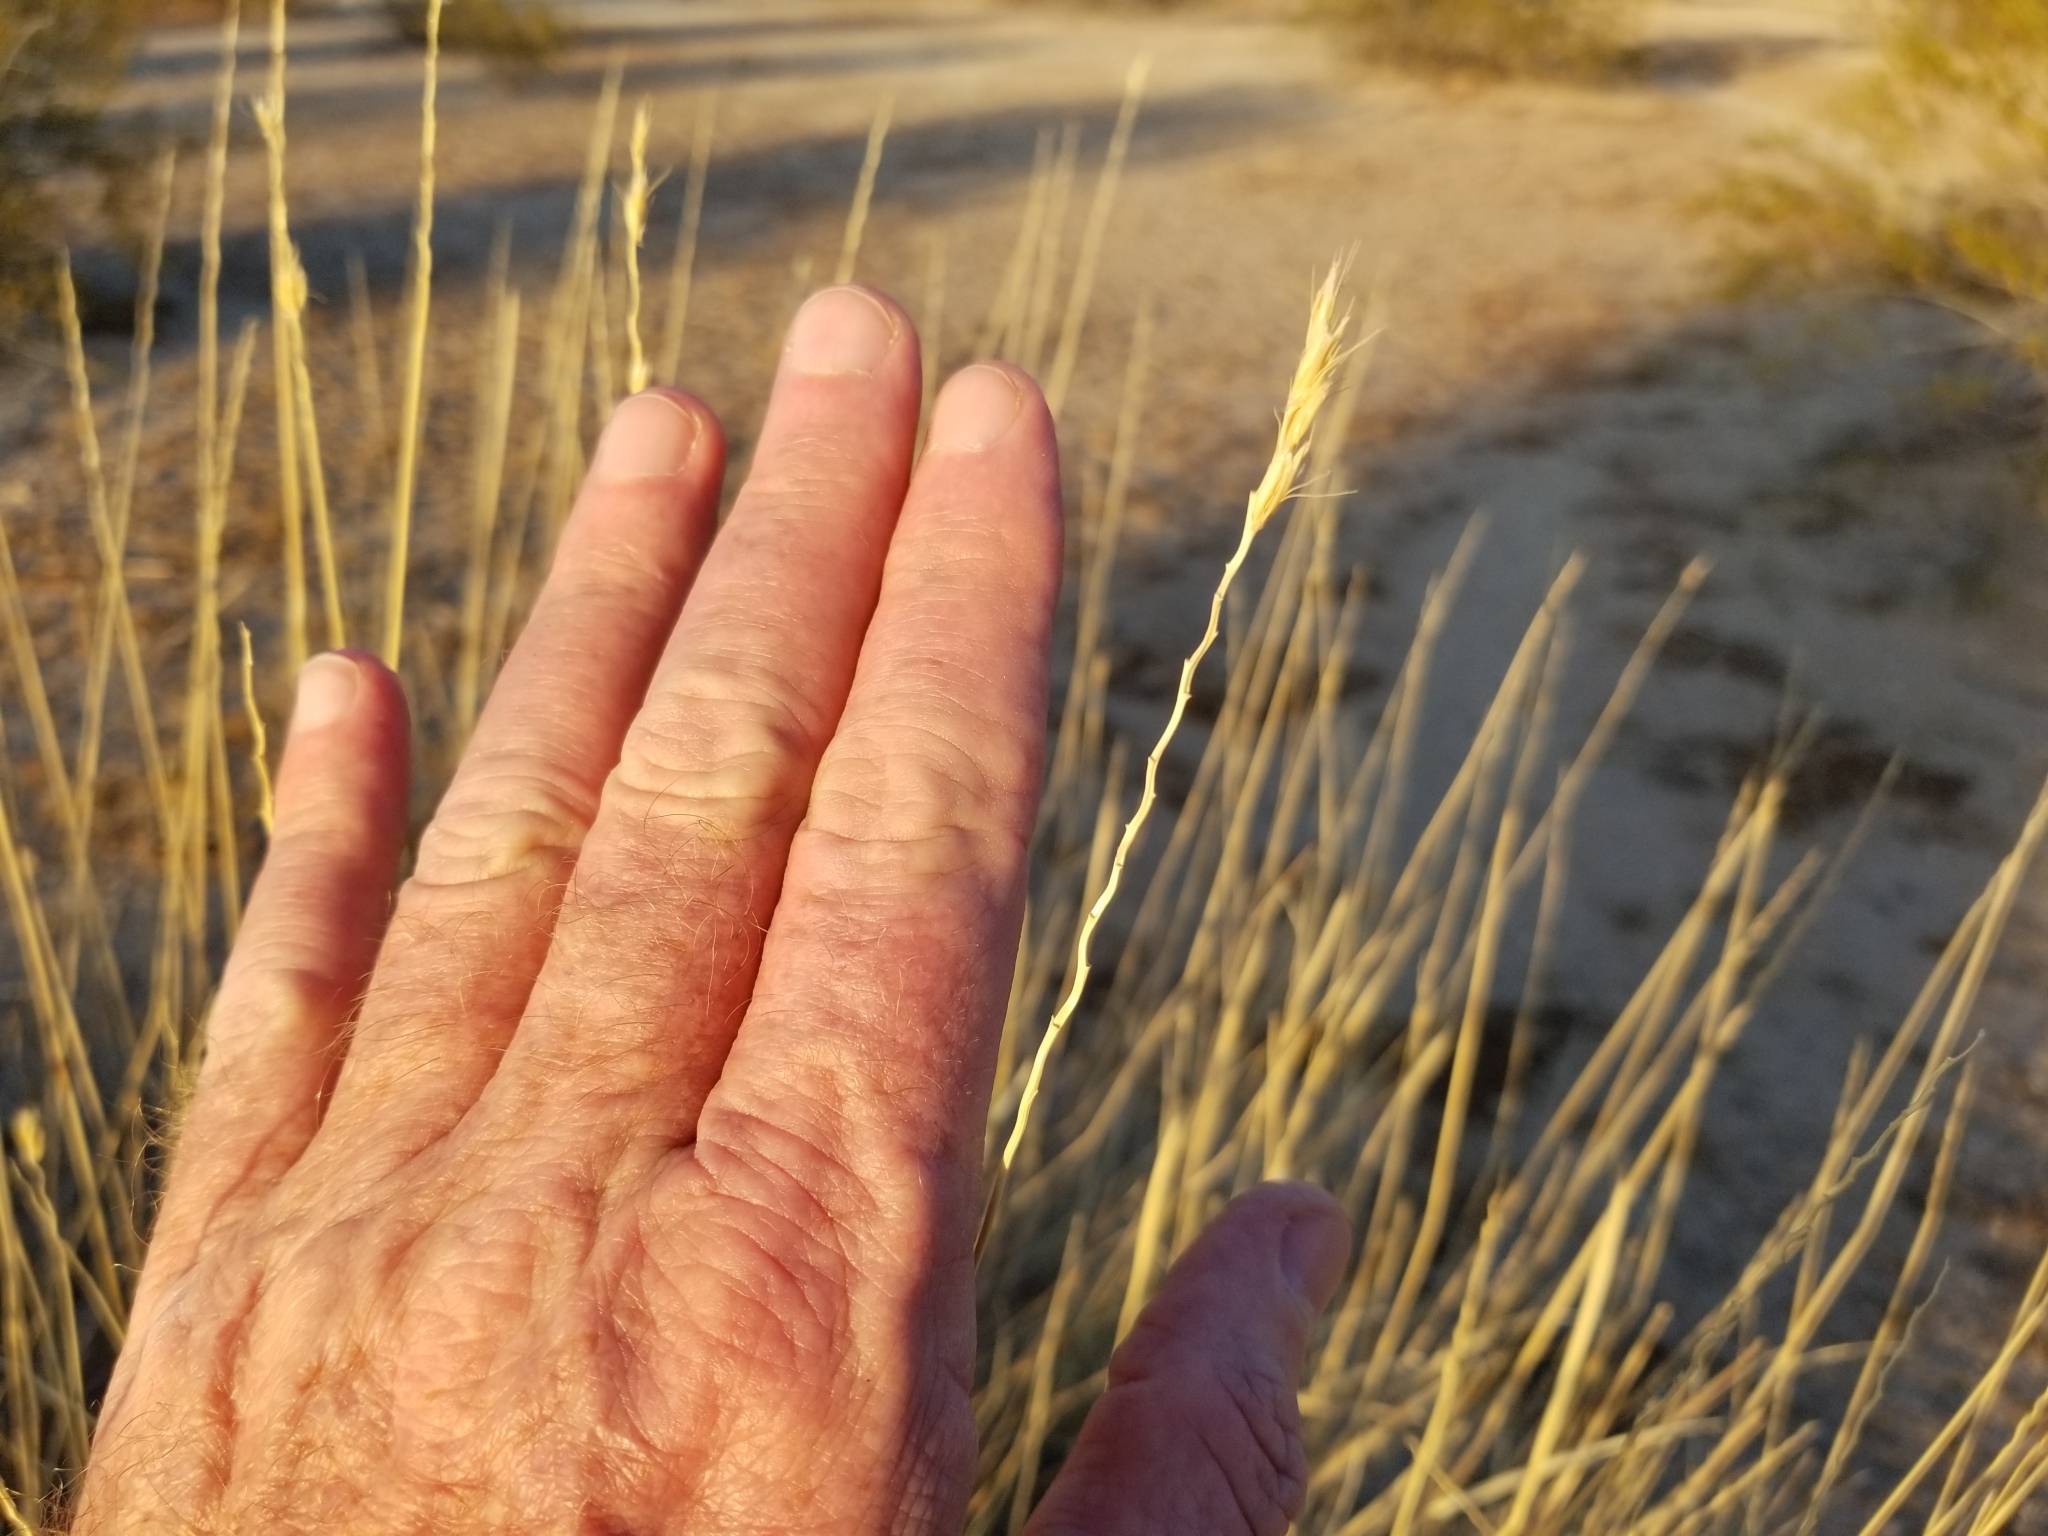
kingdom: Plantae
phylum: Tracheophyta
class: Liliopsida
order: Poales
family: Poaceae
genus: Hilaria
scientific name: Hilaria rigida
